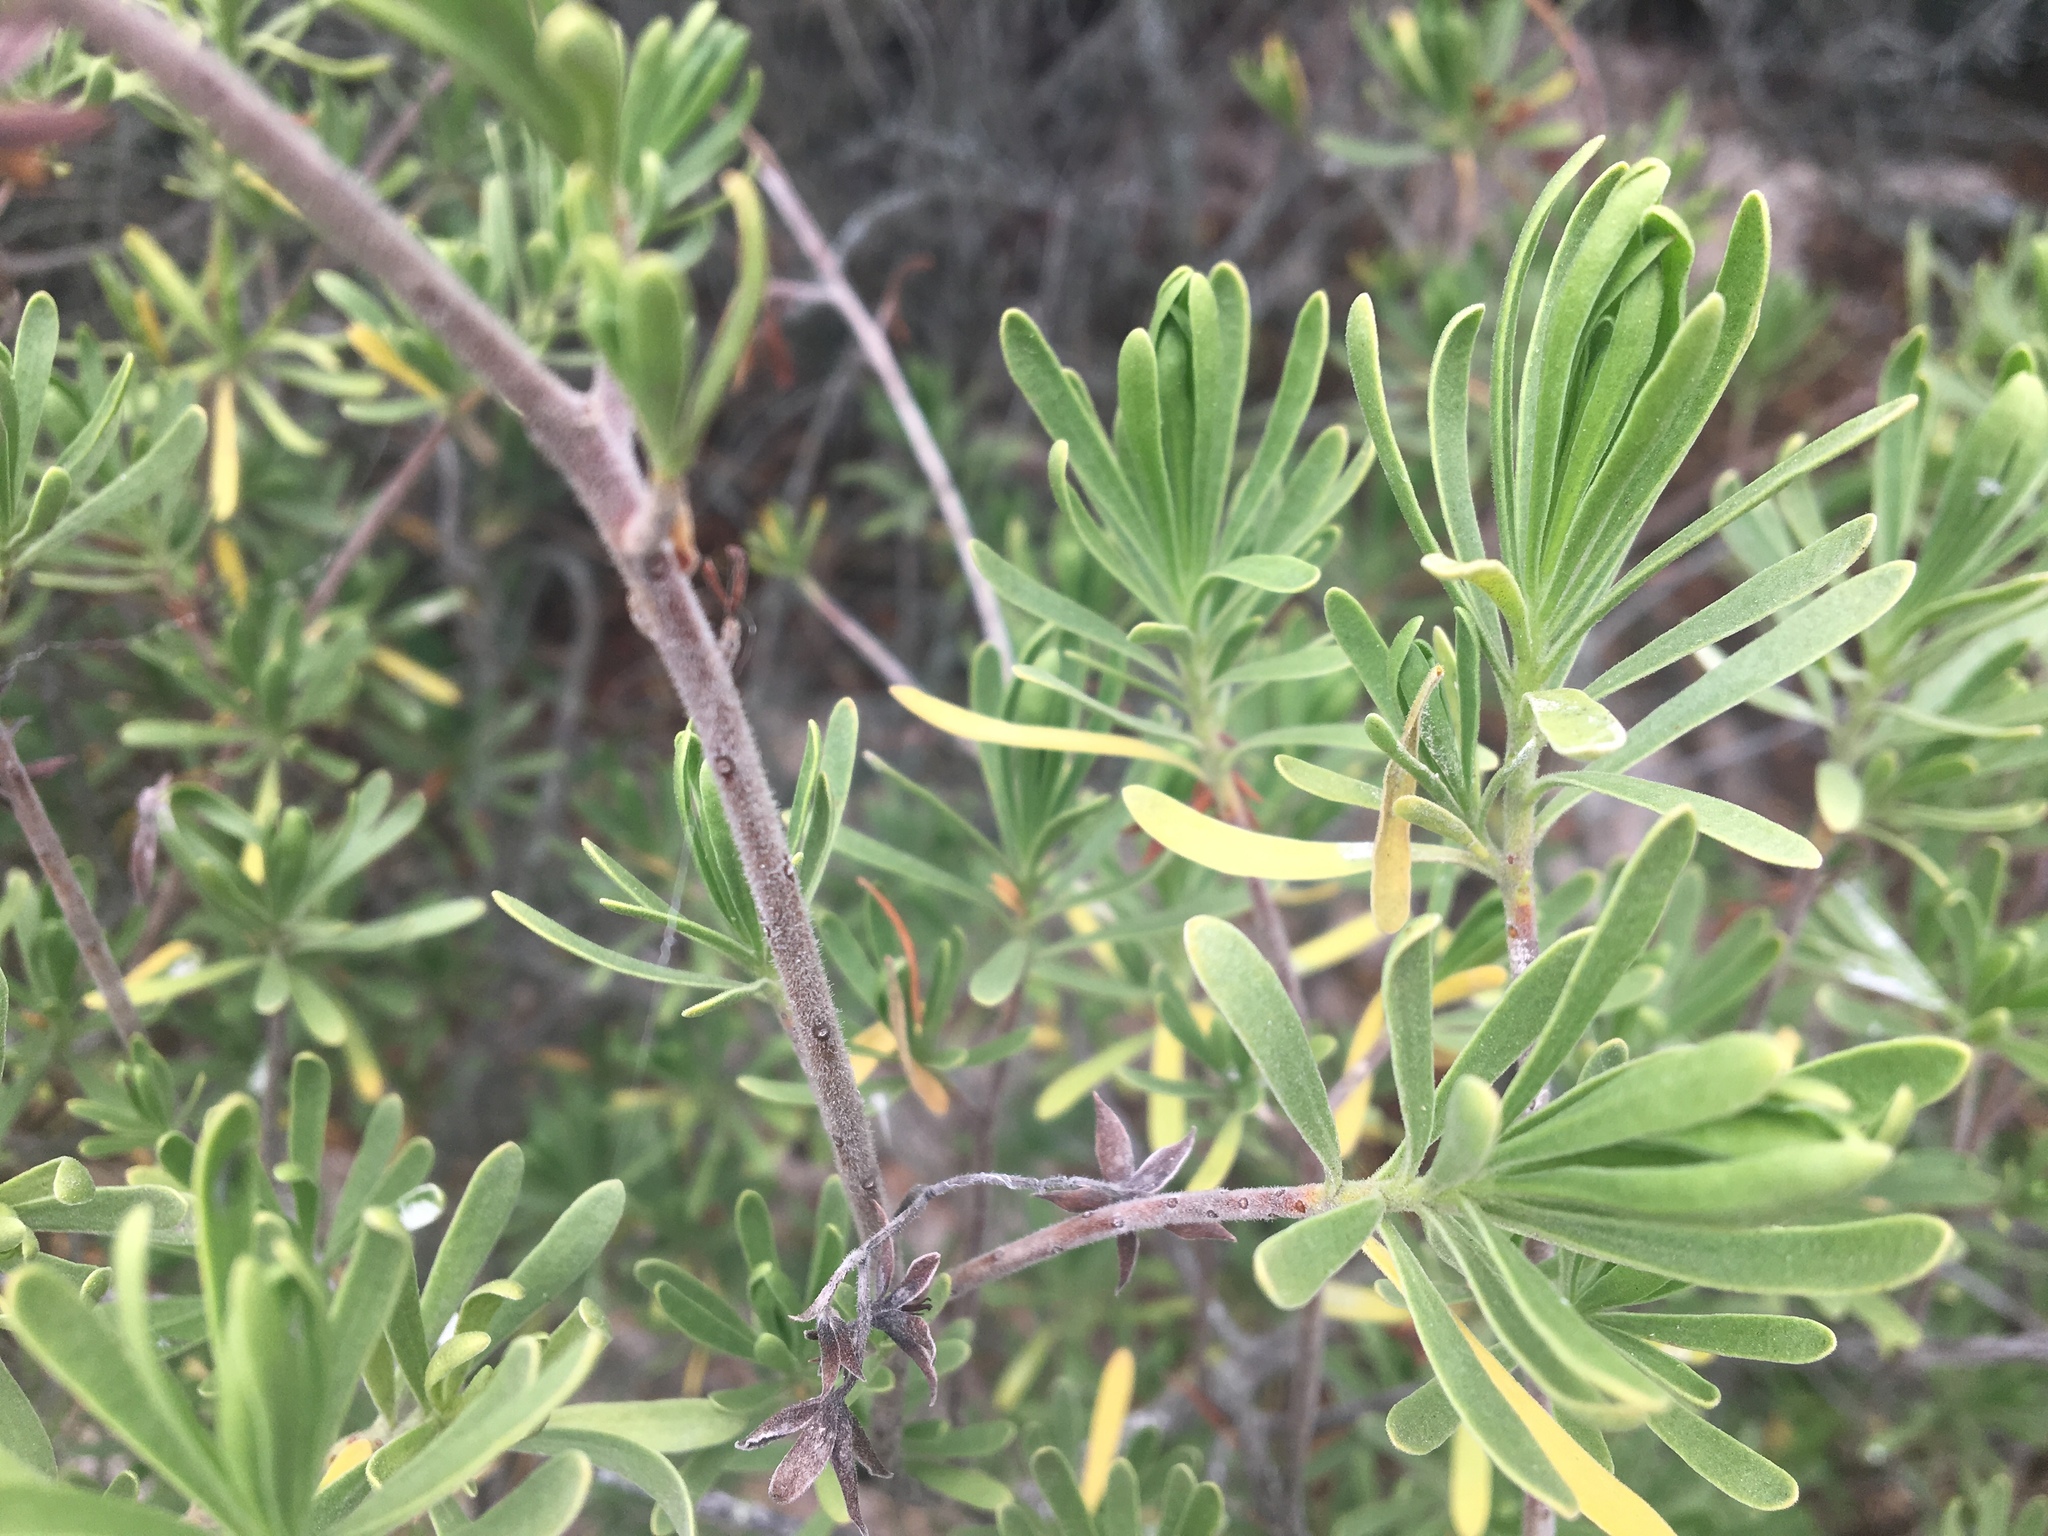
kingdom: Plantae
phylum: Tracheophyta
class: Magnoliopsida
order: Fabales
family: Surianaceae
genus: Suriana
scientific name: Suriana maritima
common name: Bay-cedar
